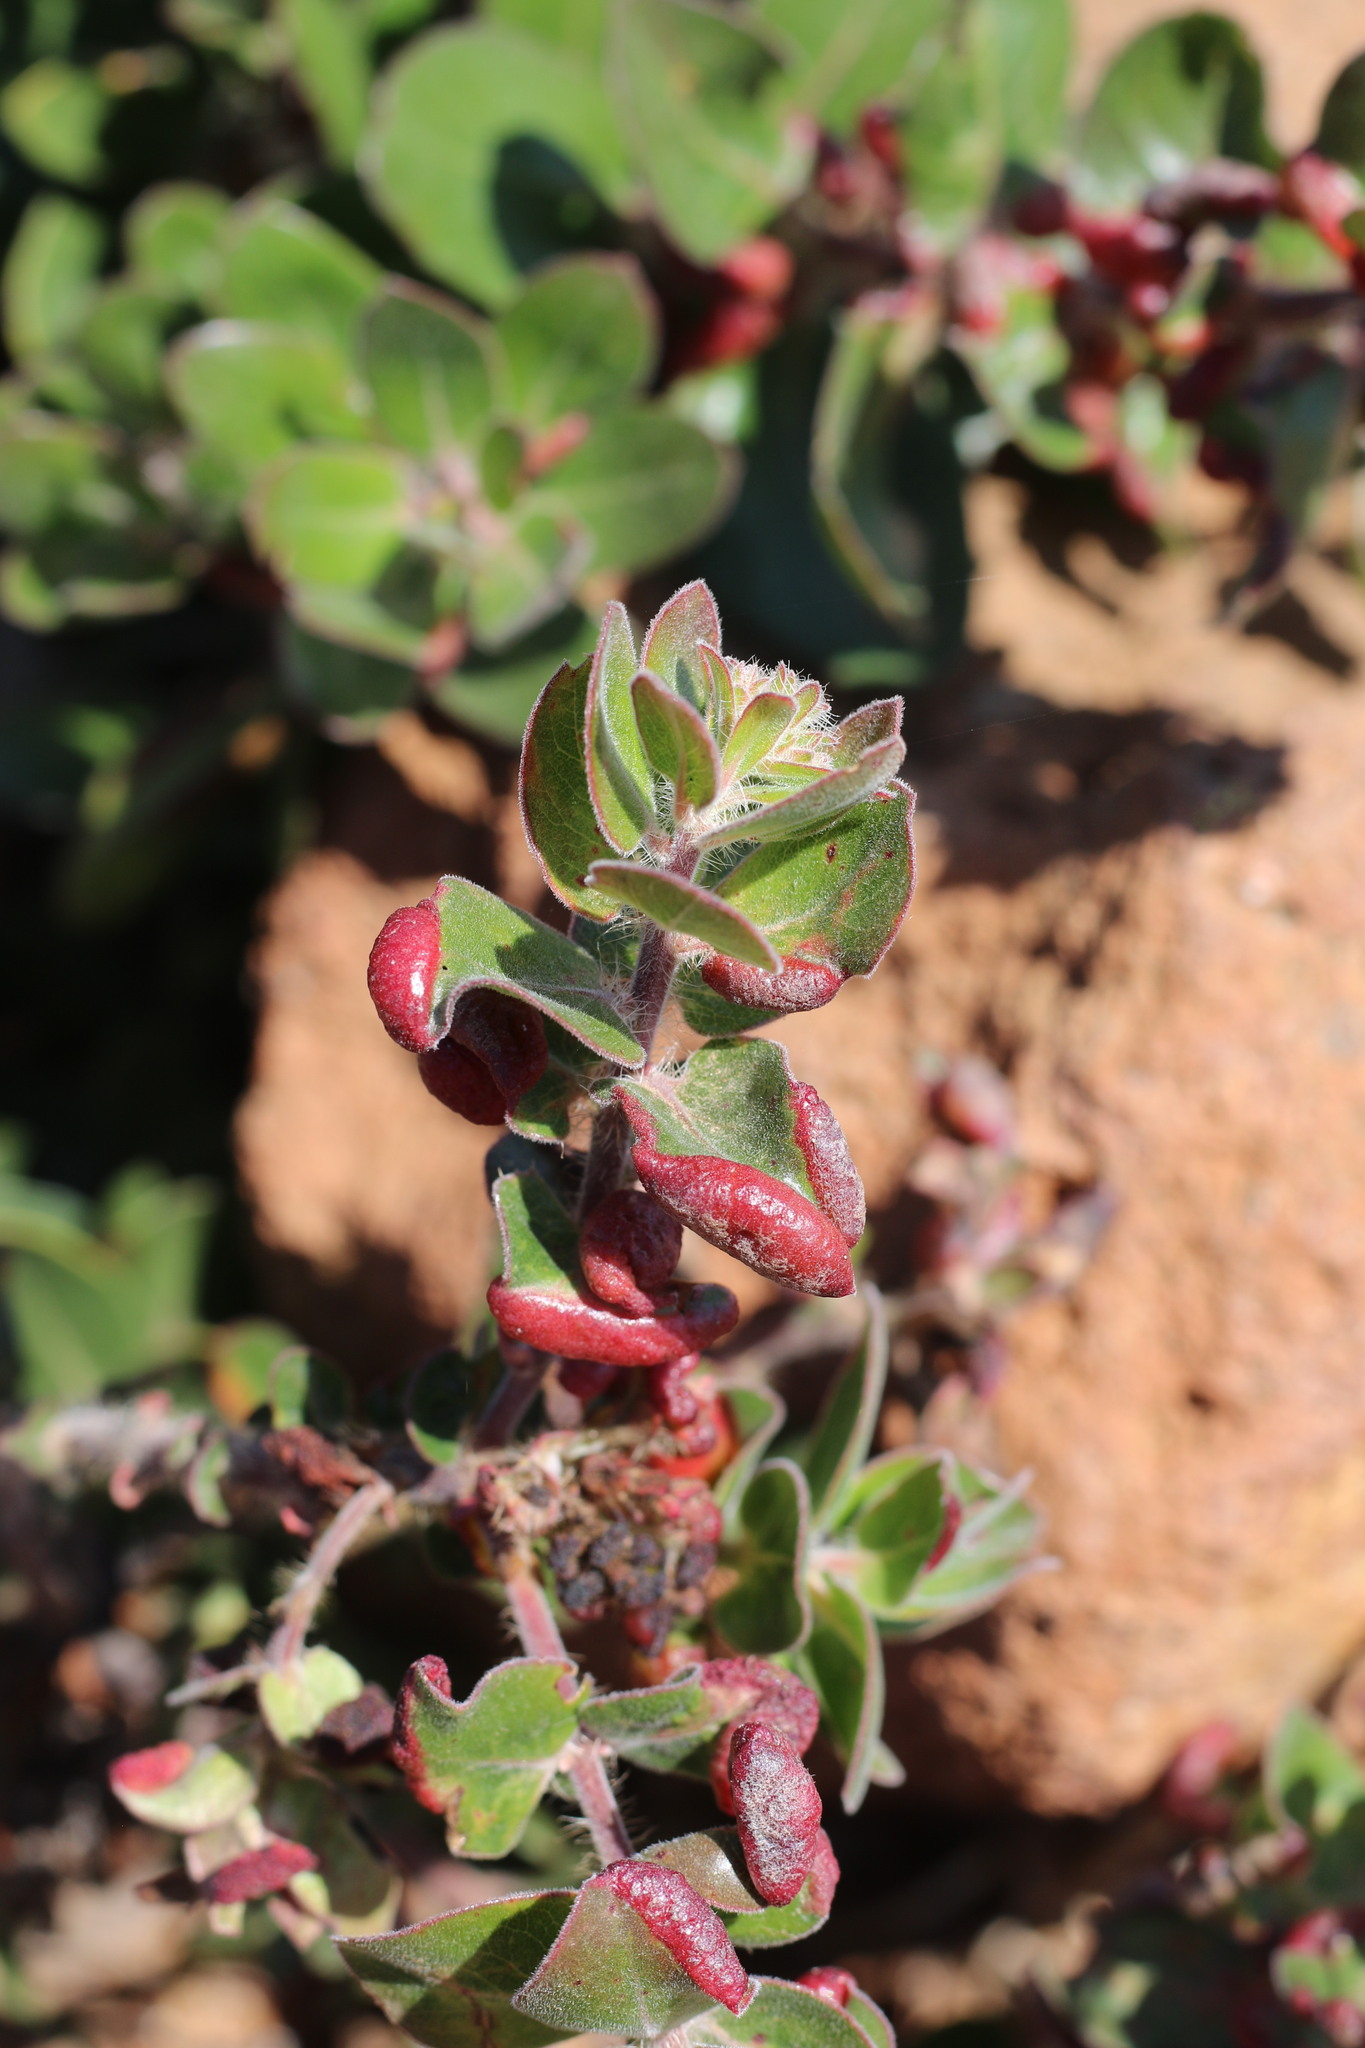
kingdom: Animalia
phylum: Arthropoda
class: Insecta
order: Hemiptera
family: Aphididae
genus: Tamalia
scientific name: Tamalia coweni
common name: Manzanita leafgall aphid
